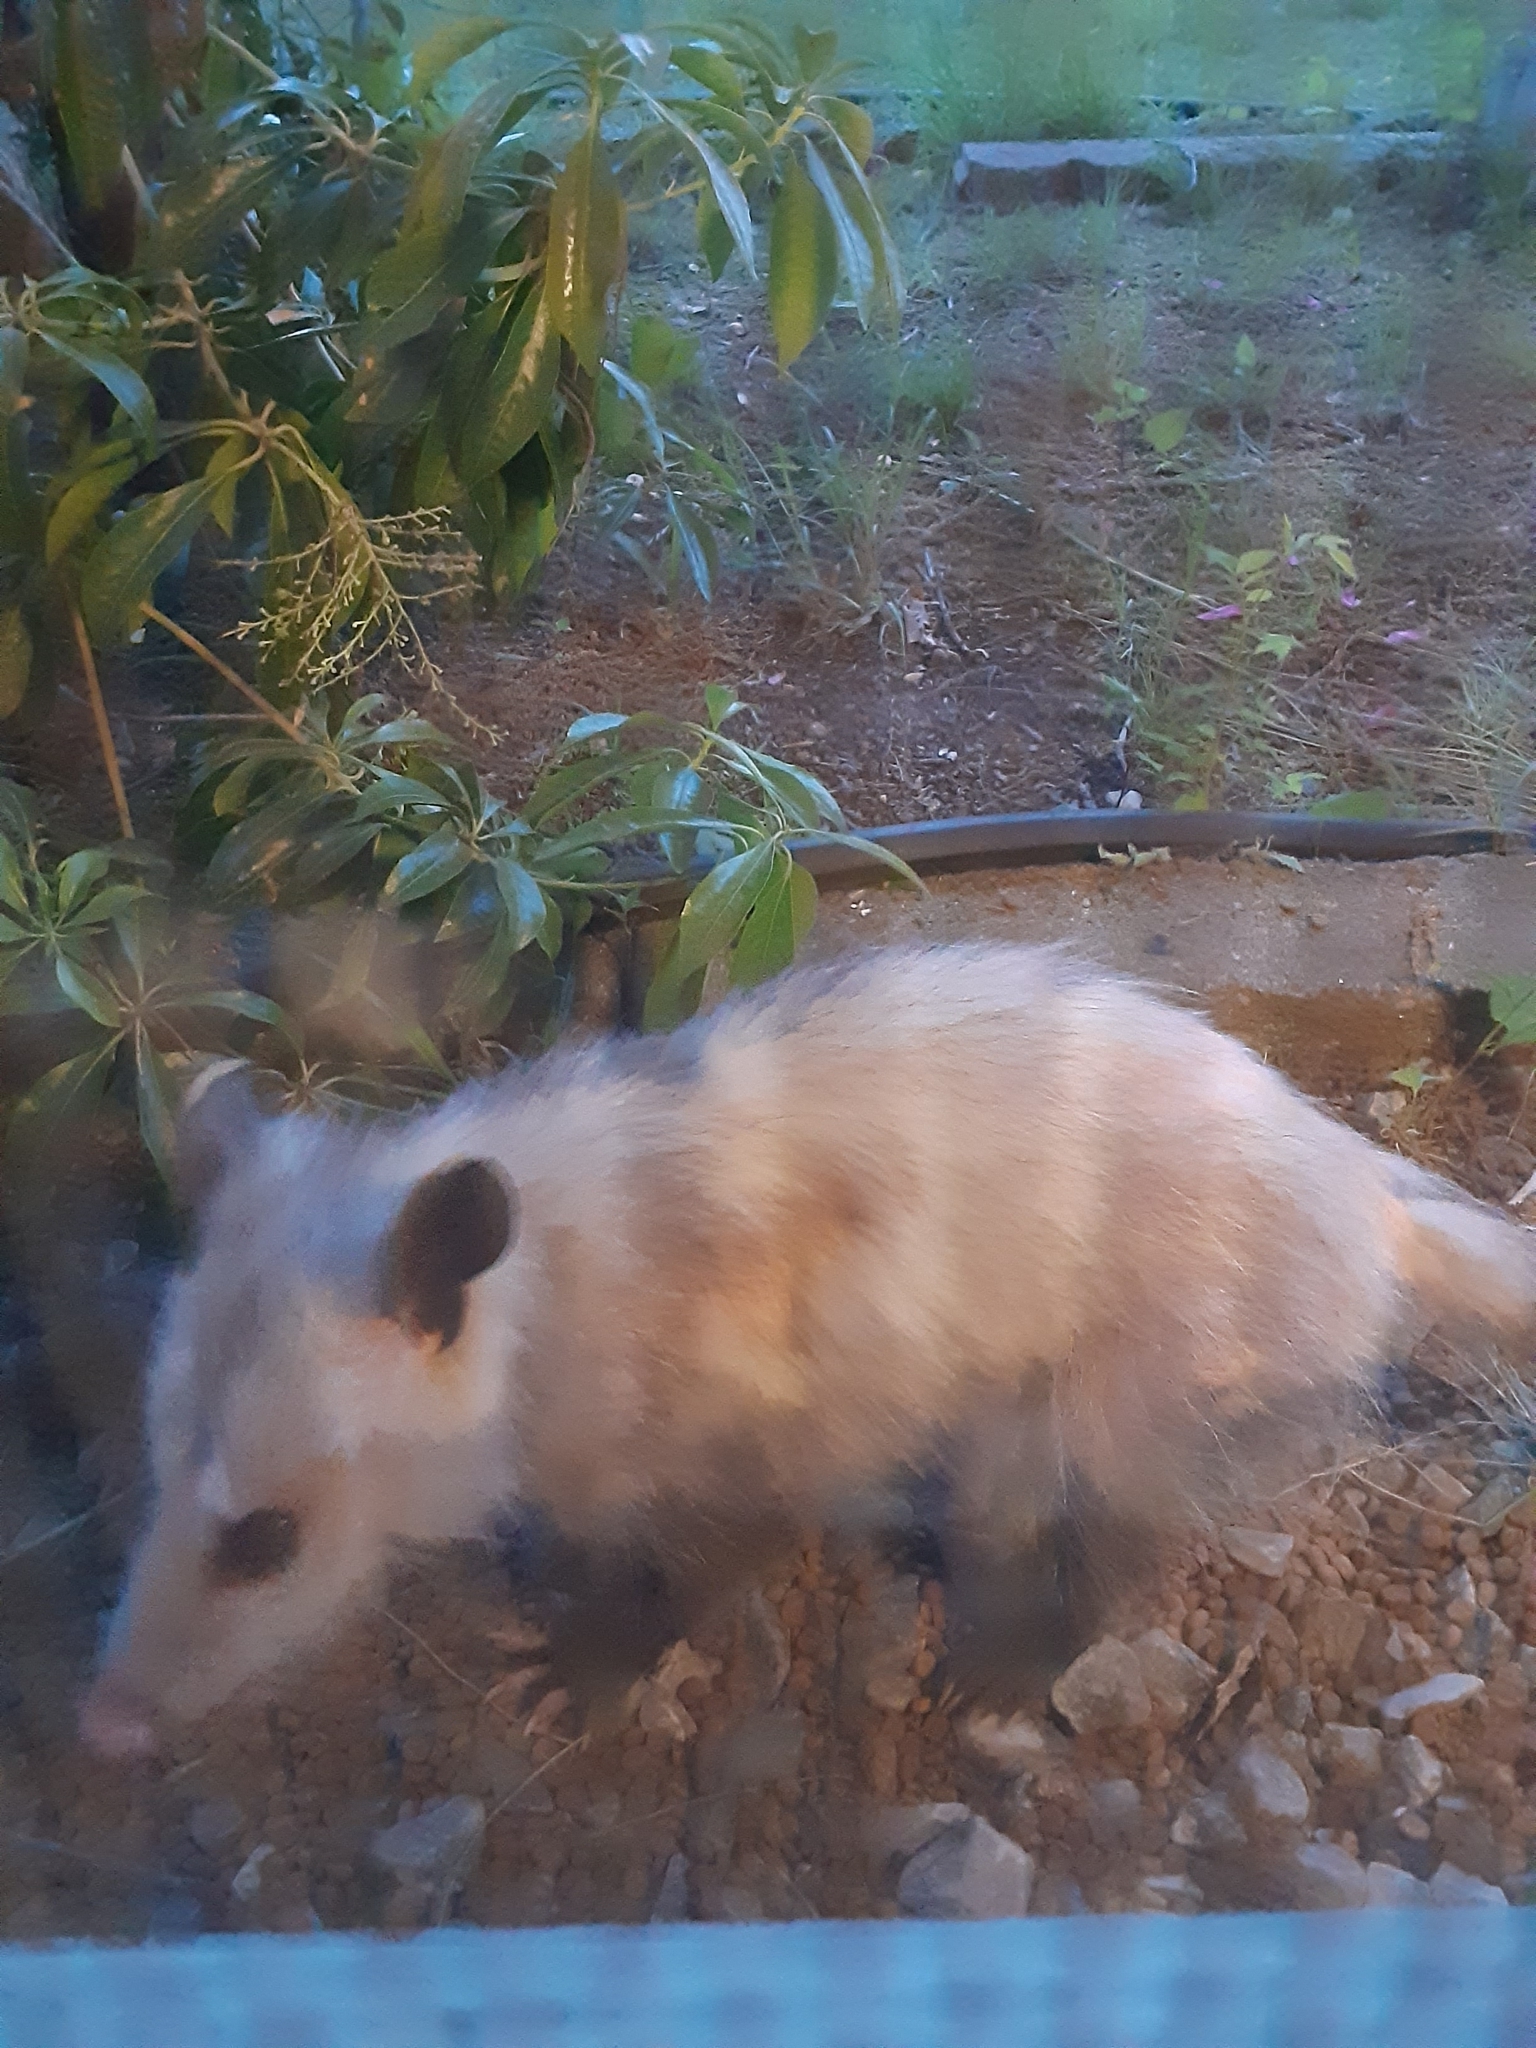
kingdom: Animalia
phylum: Chordata
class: Mammalia
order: Didelphimorphia
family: Didelphidae
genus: Didelphis
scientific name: Didelphis virginiana
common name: Virginia opossum
